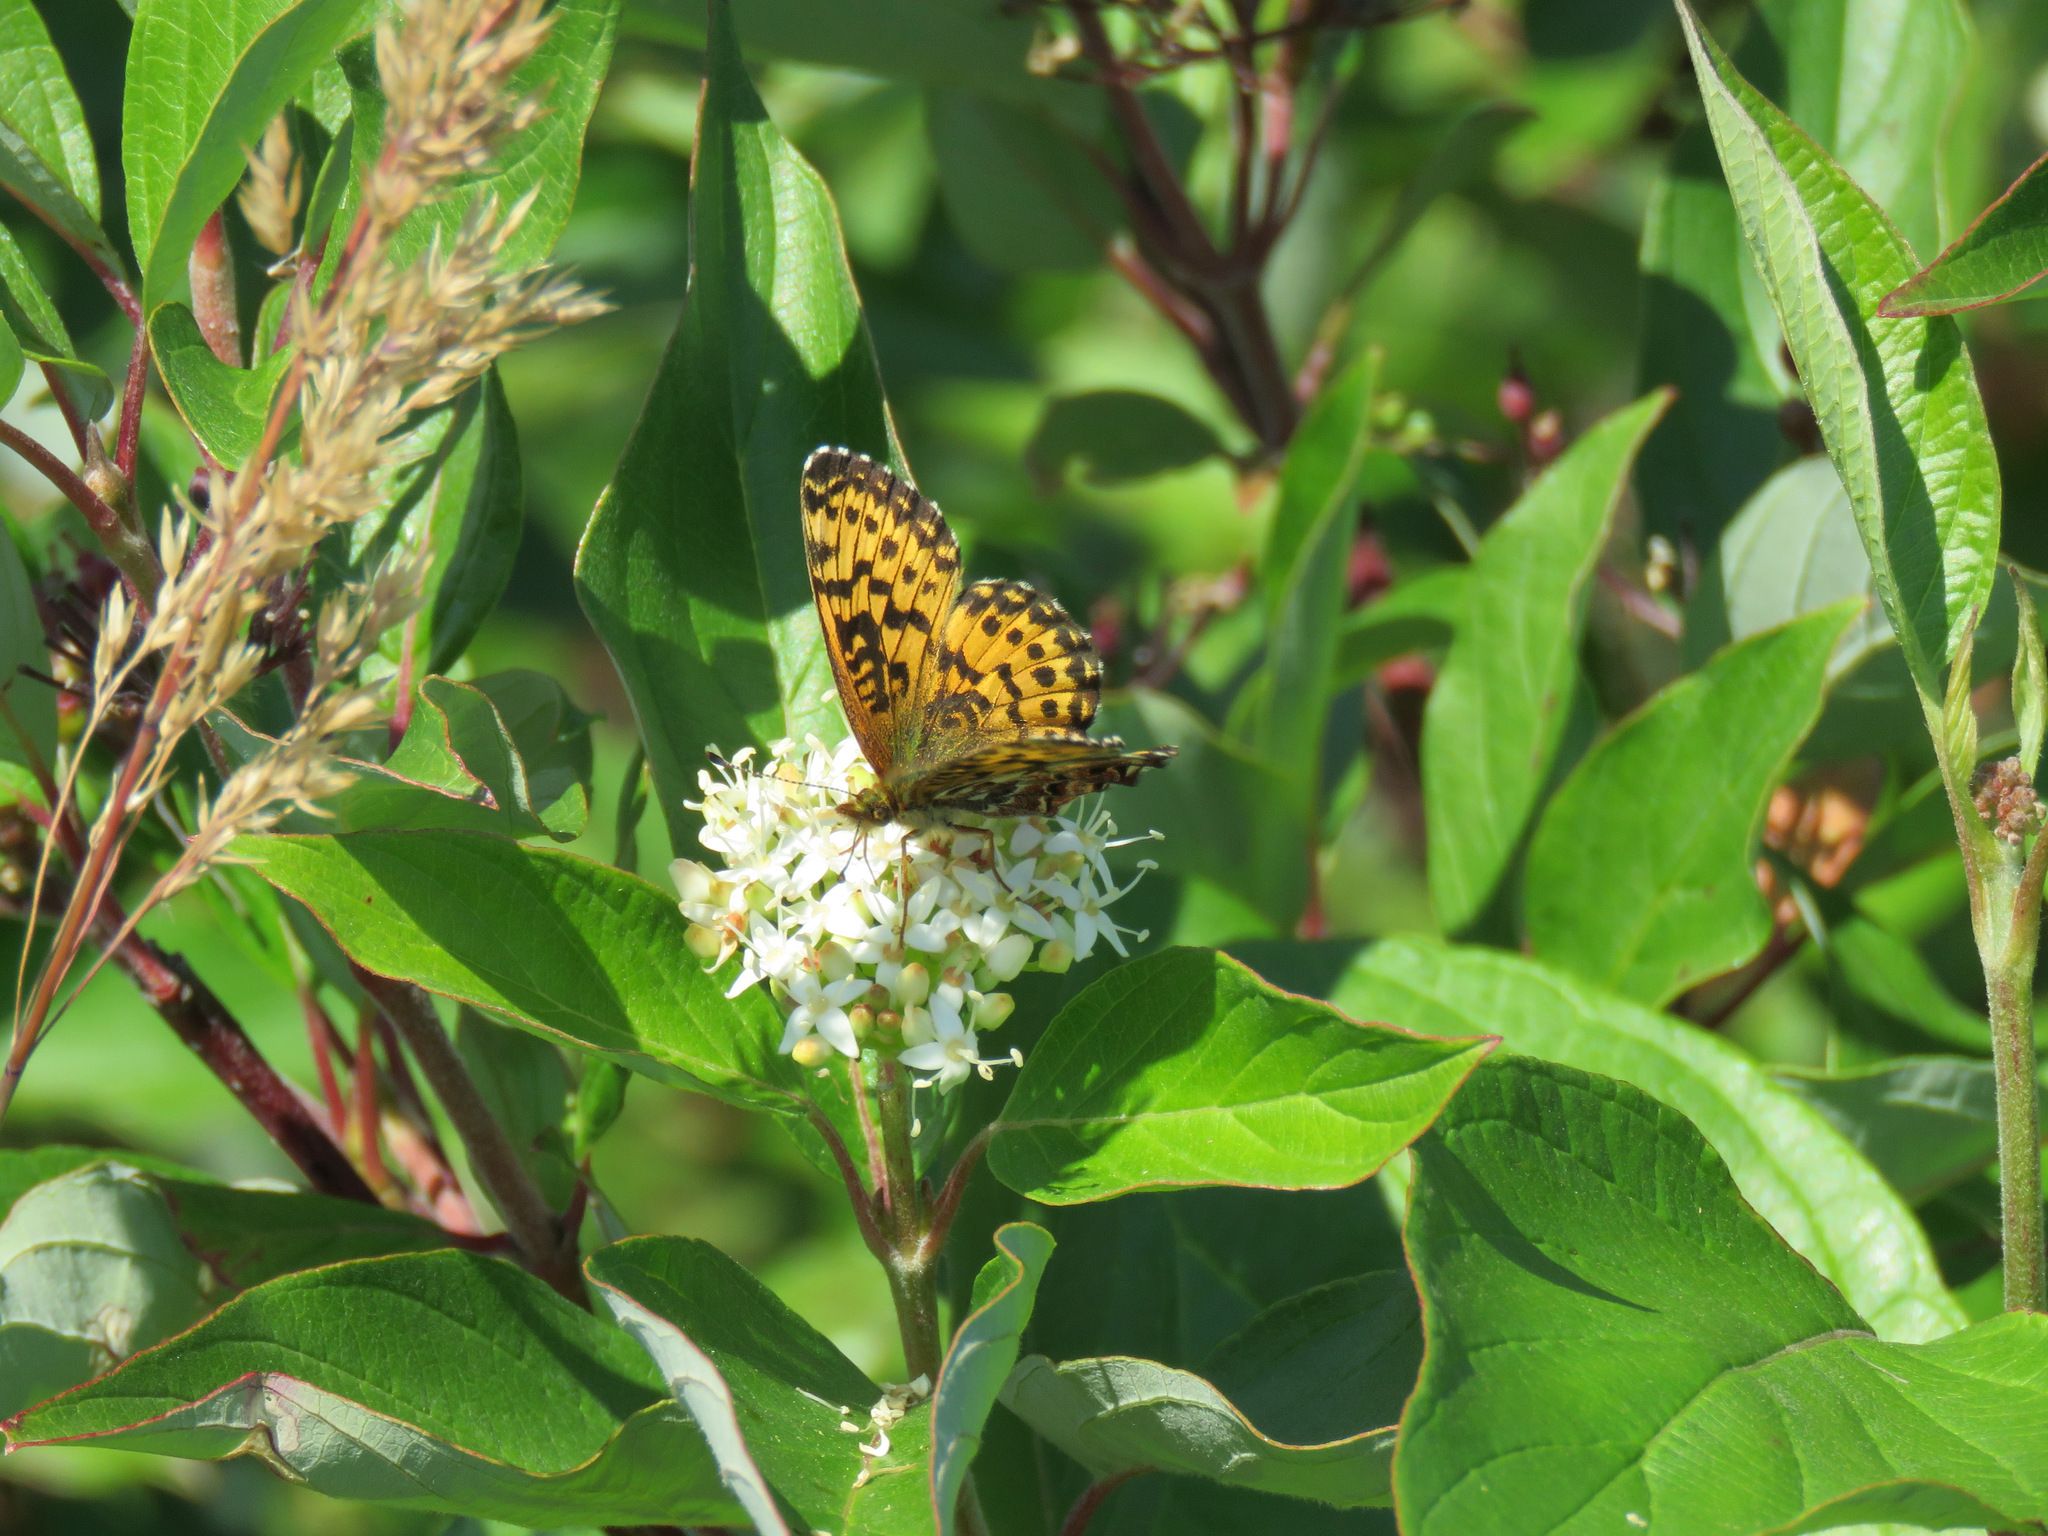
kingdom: Animalia
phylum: Arthropoda
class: Insecta
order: Lepidoptera
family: Nymphalidae
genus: Boloria
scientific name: Boloria chariclea
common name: Arctic fritillary
